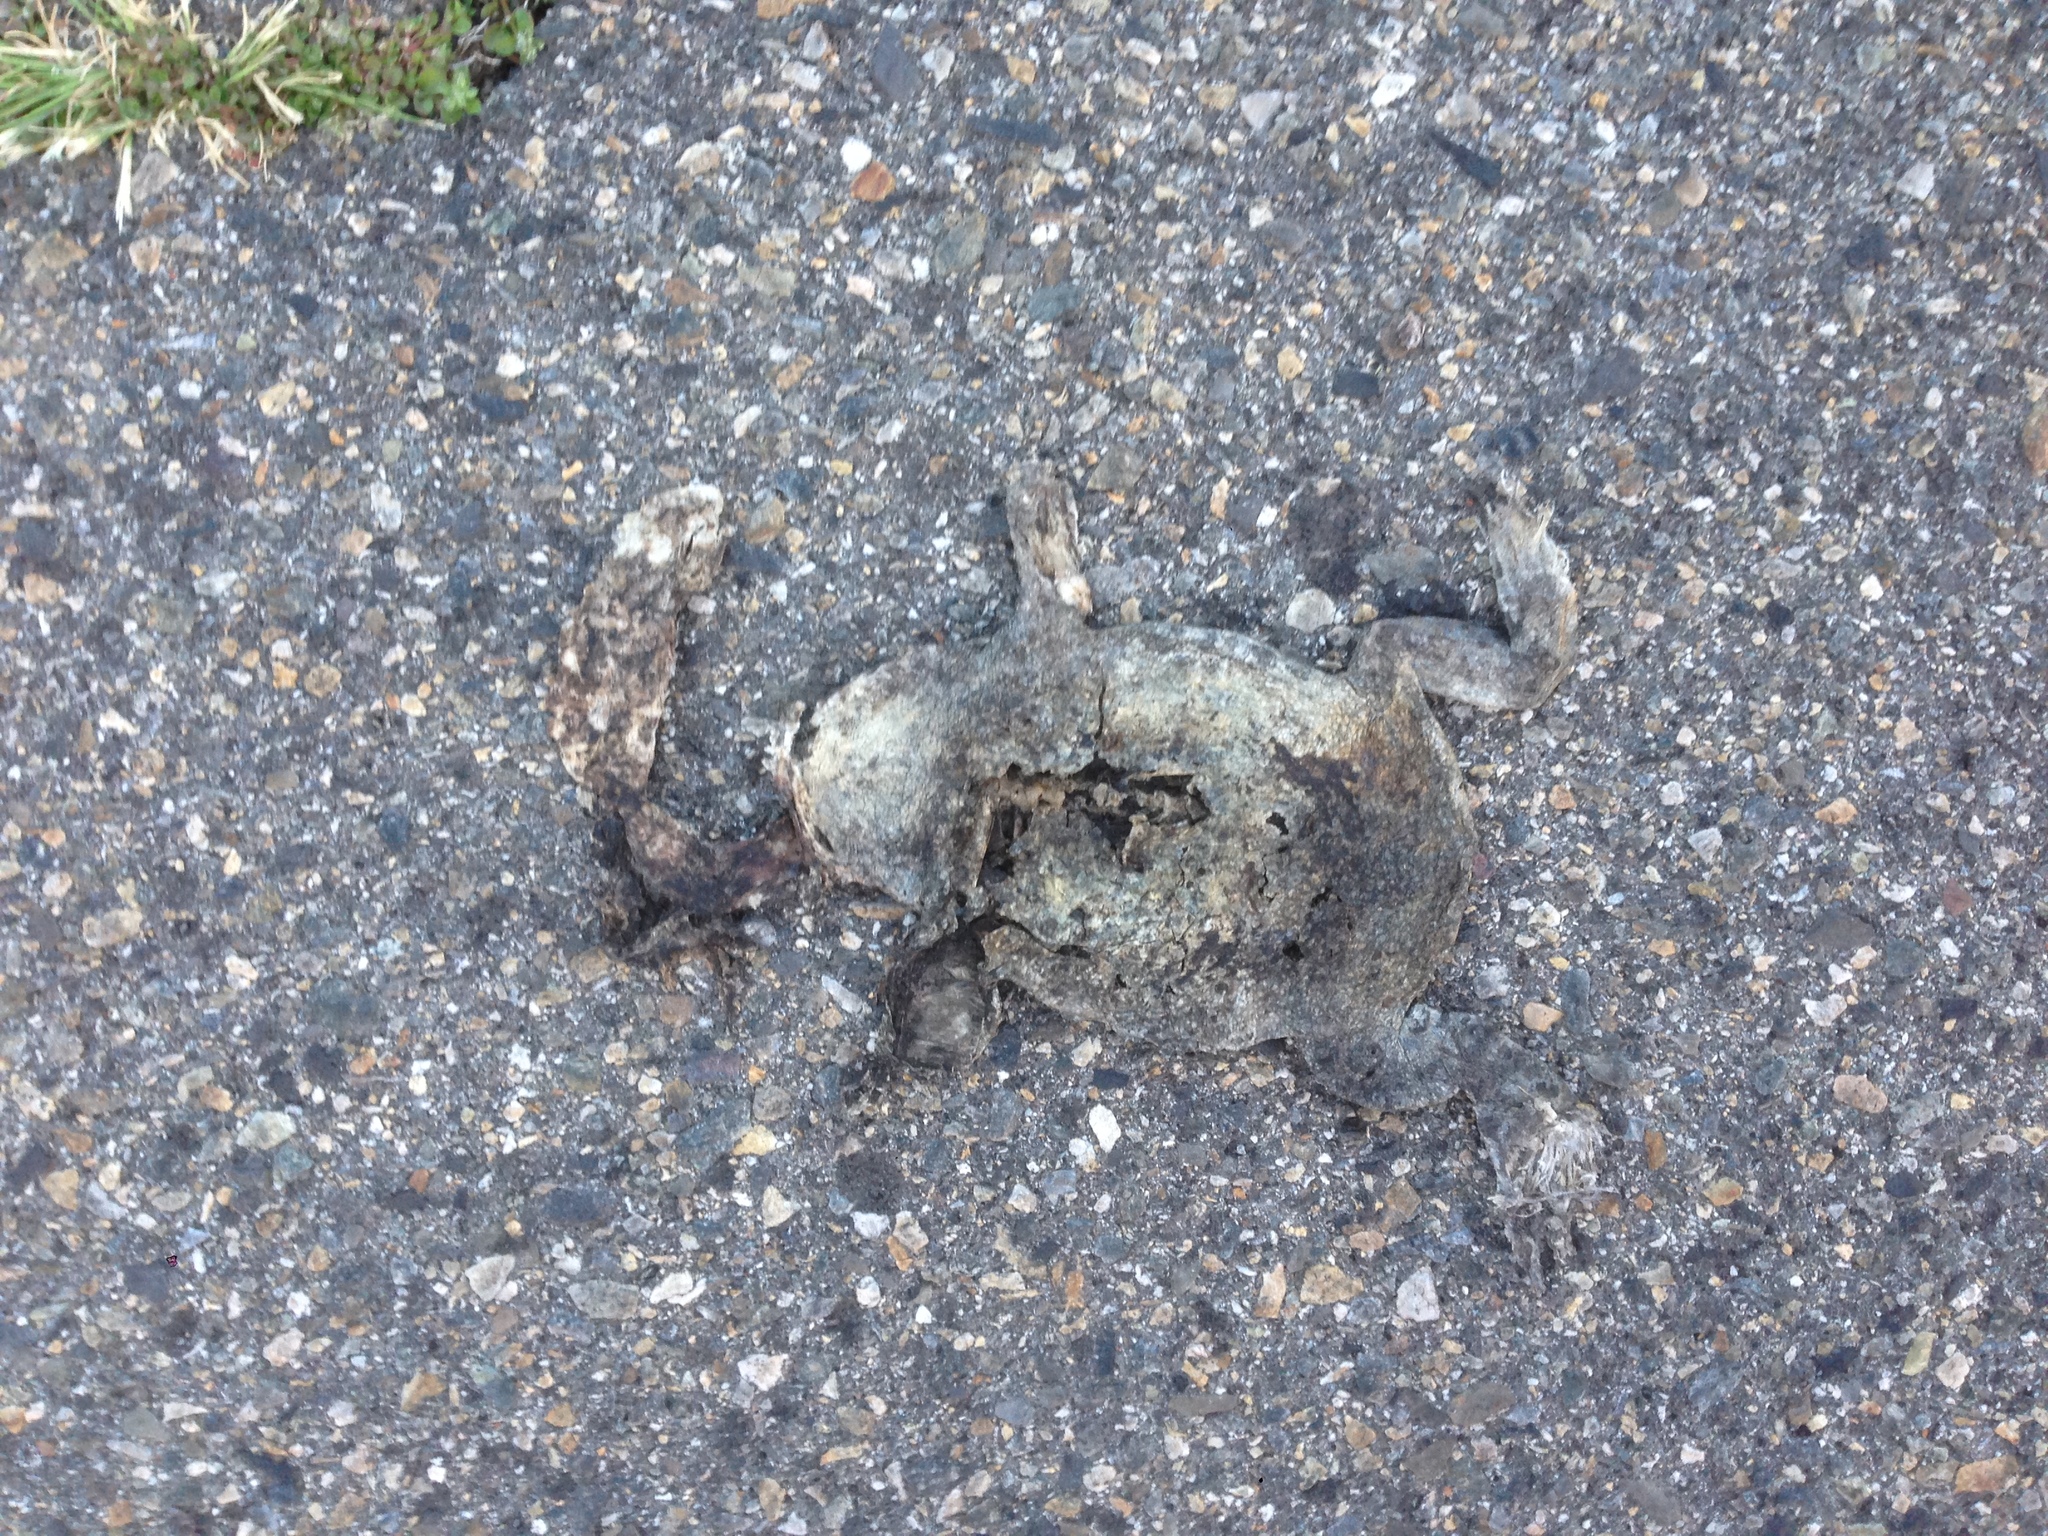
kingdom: Animalia
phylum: Chordata
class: Amphibia
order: Anura
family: Bufonidae
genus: Anaxyrus
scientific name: Anaxyrus boreas
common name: Western toad
